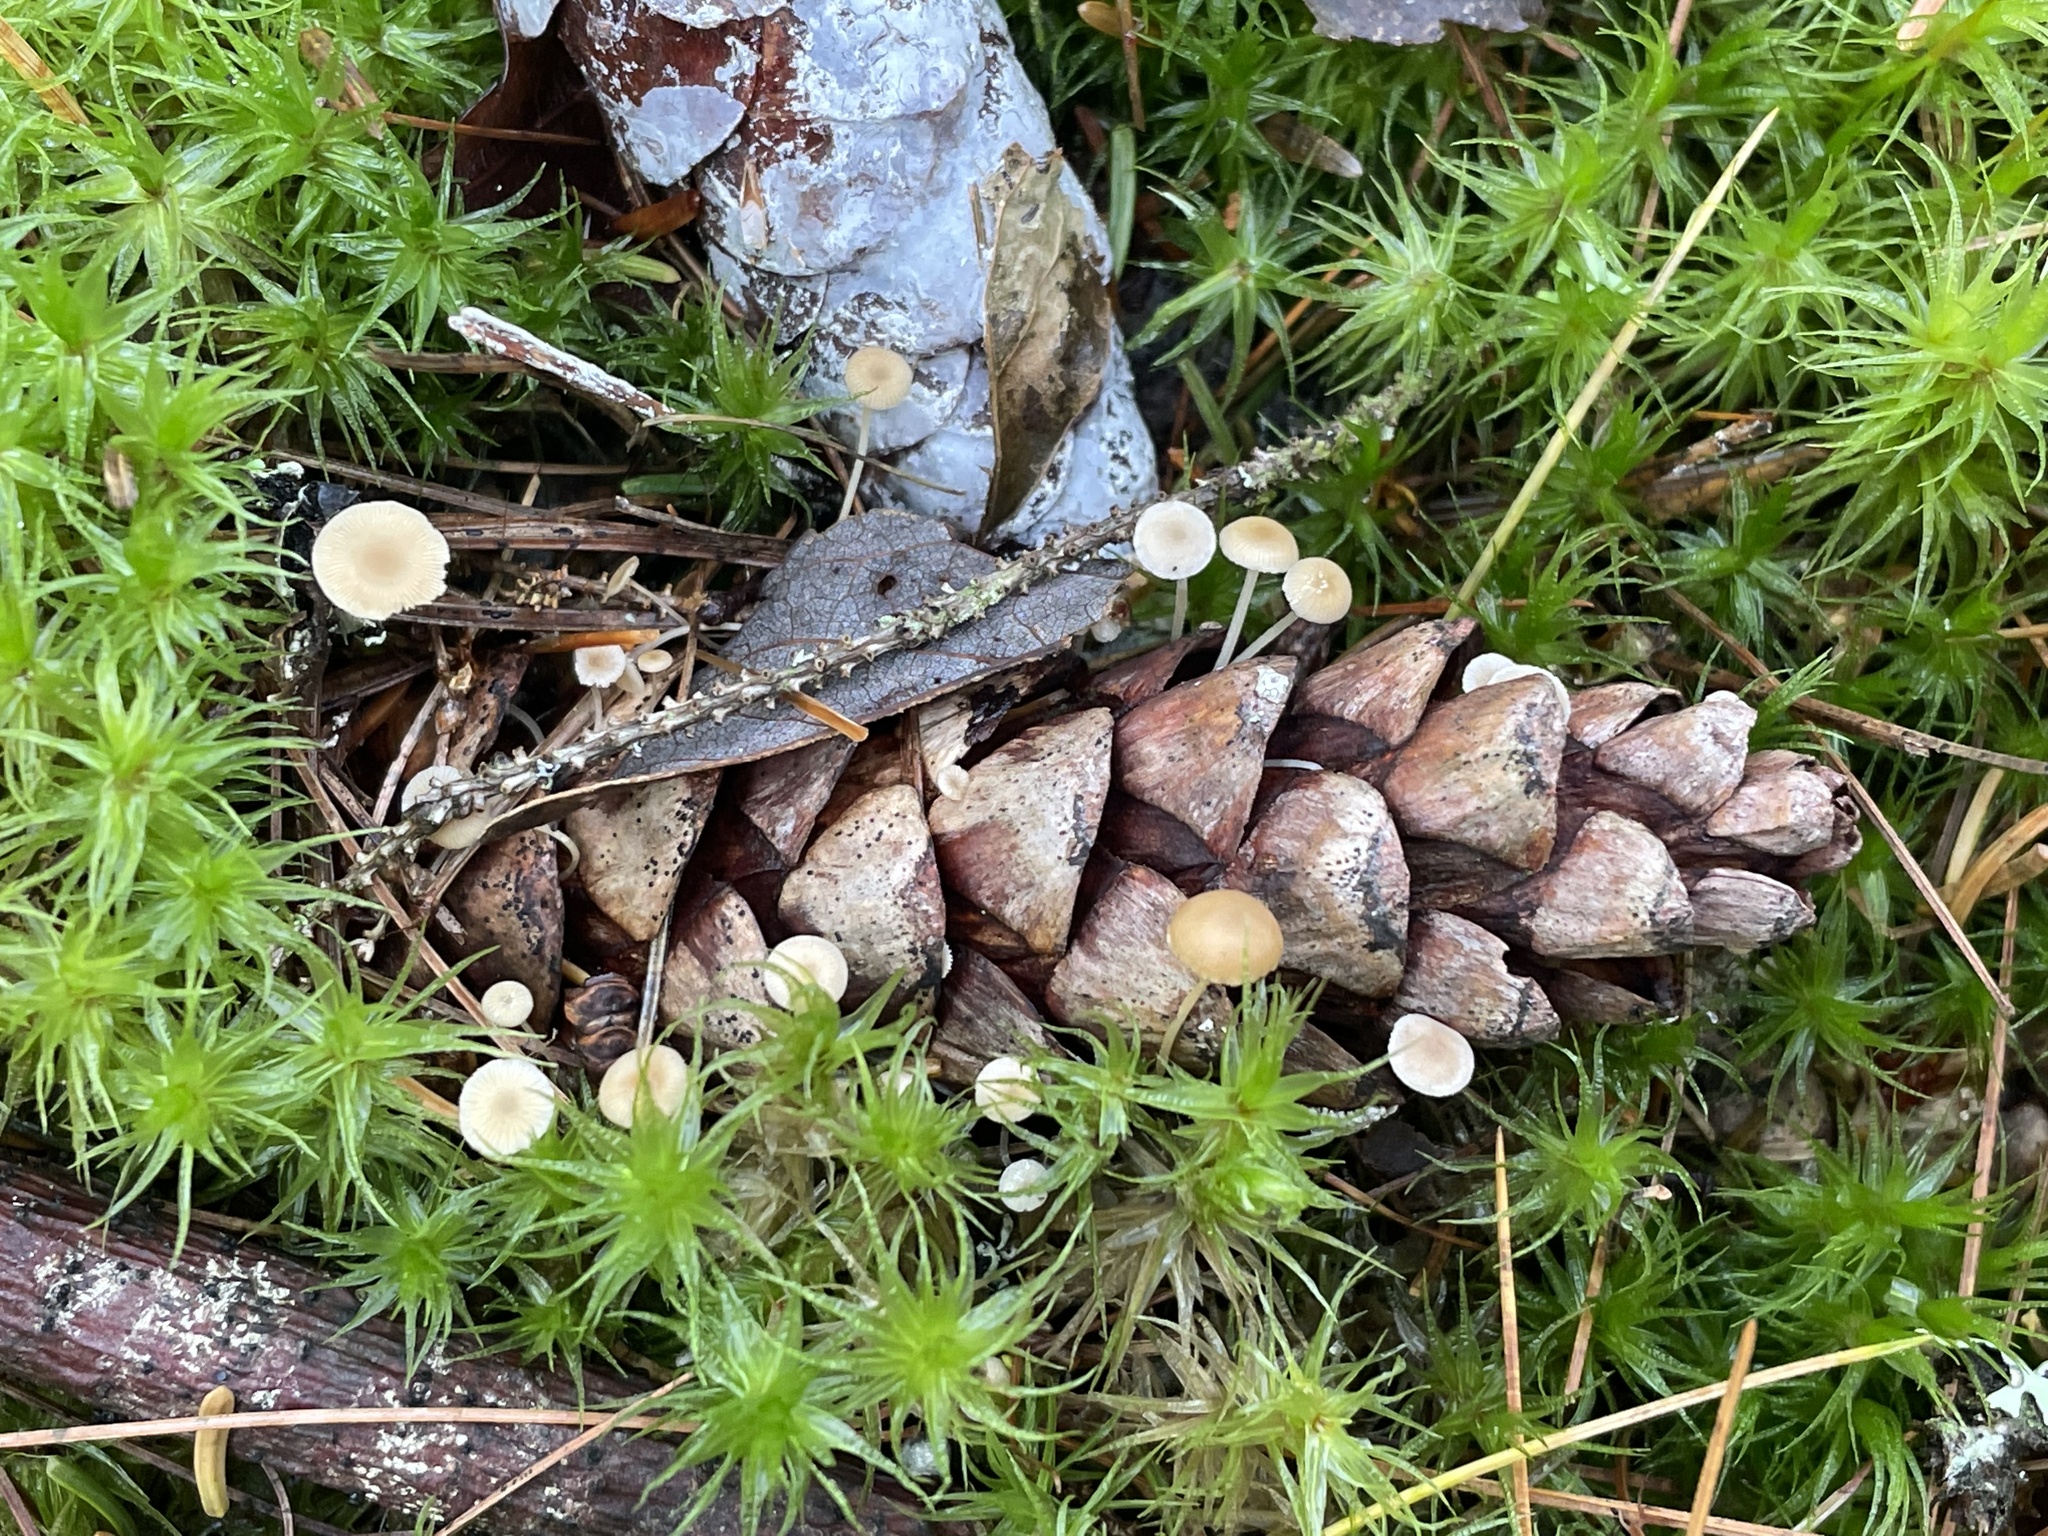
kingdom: Fungi
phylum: Basidiomycota
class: Agaricomycetes
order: Agaricales
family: Marasmiaceae
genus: Baeospora
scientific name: Baeospora myosura
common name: Conifercone cap
